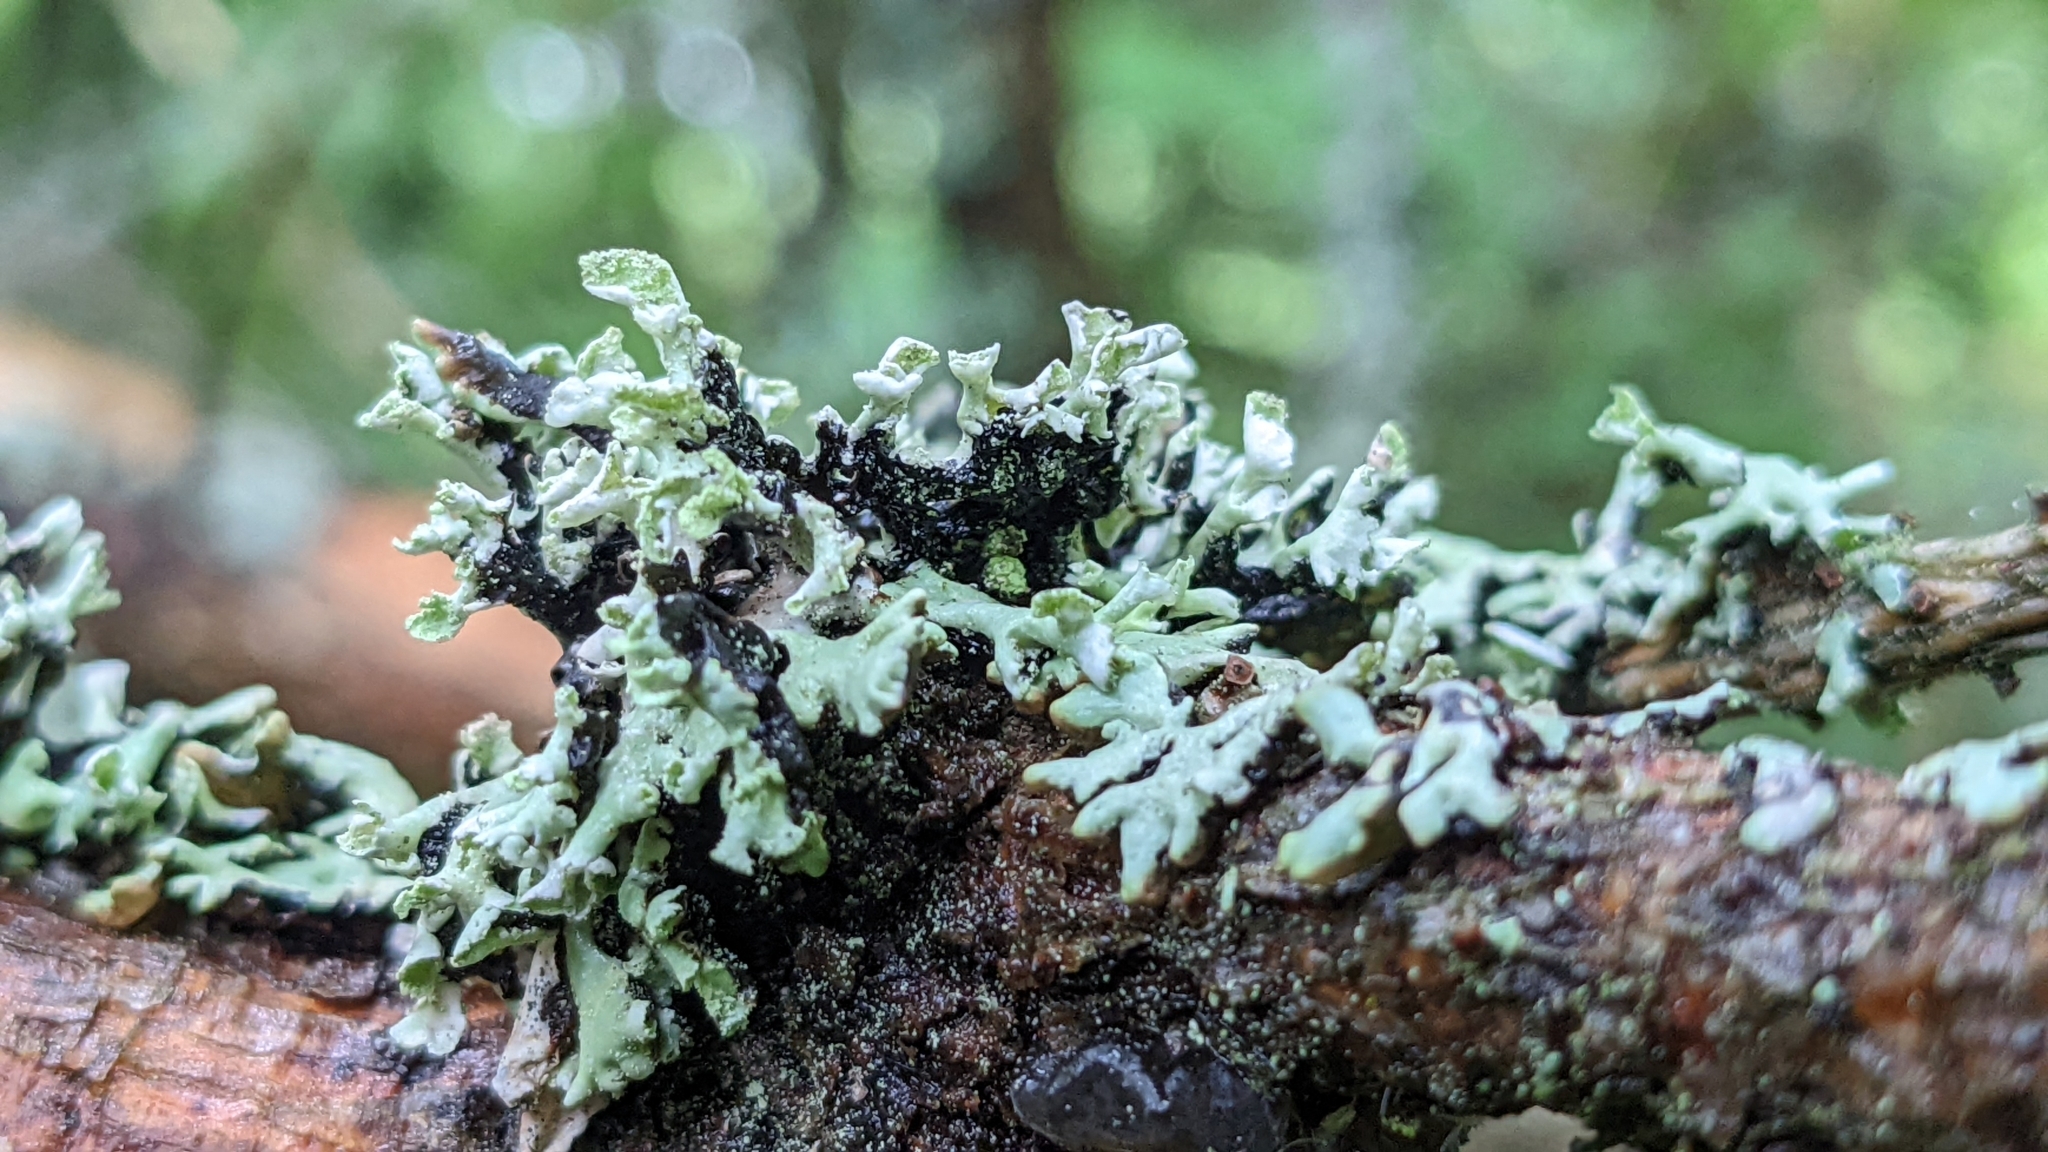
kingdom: Fungi
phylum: Ascomycota
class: Lecanoromycetes
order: Lecanorales
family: Parmeliaceae
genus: Hypogymnia
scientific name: Hypogymnia physodes
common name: Dark crottle
